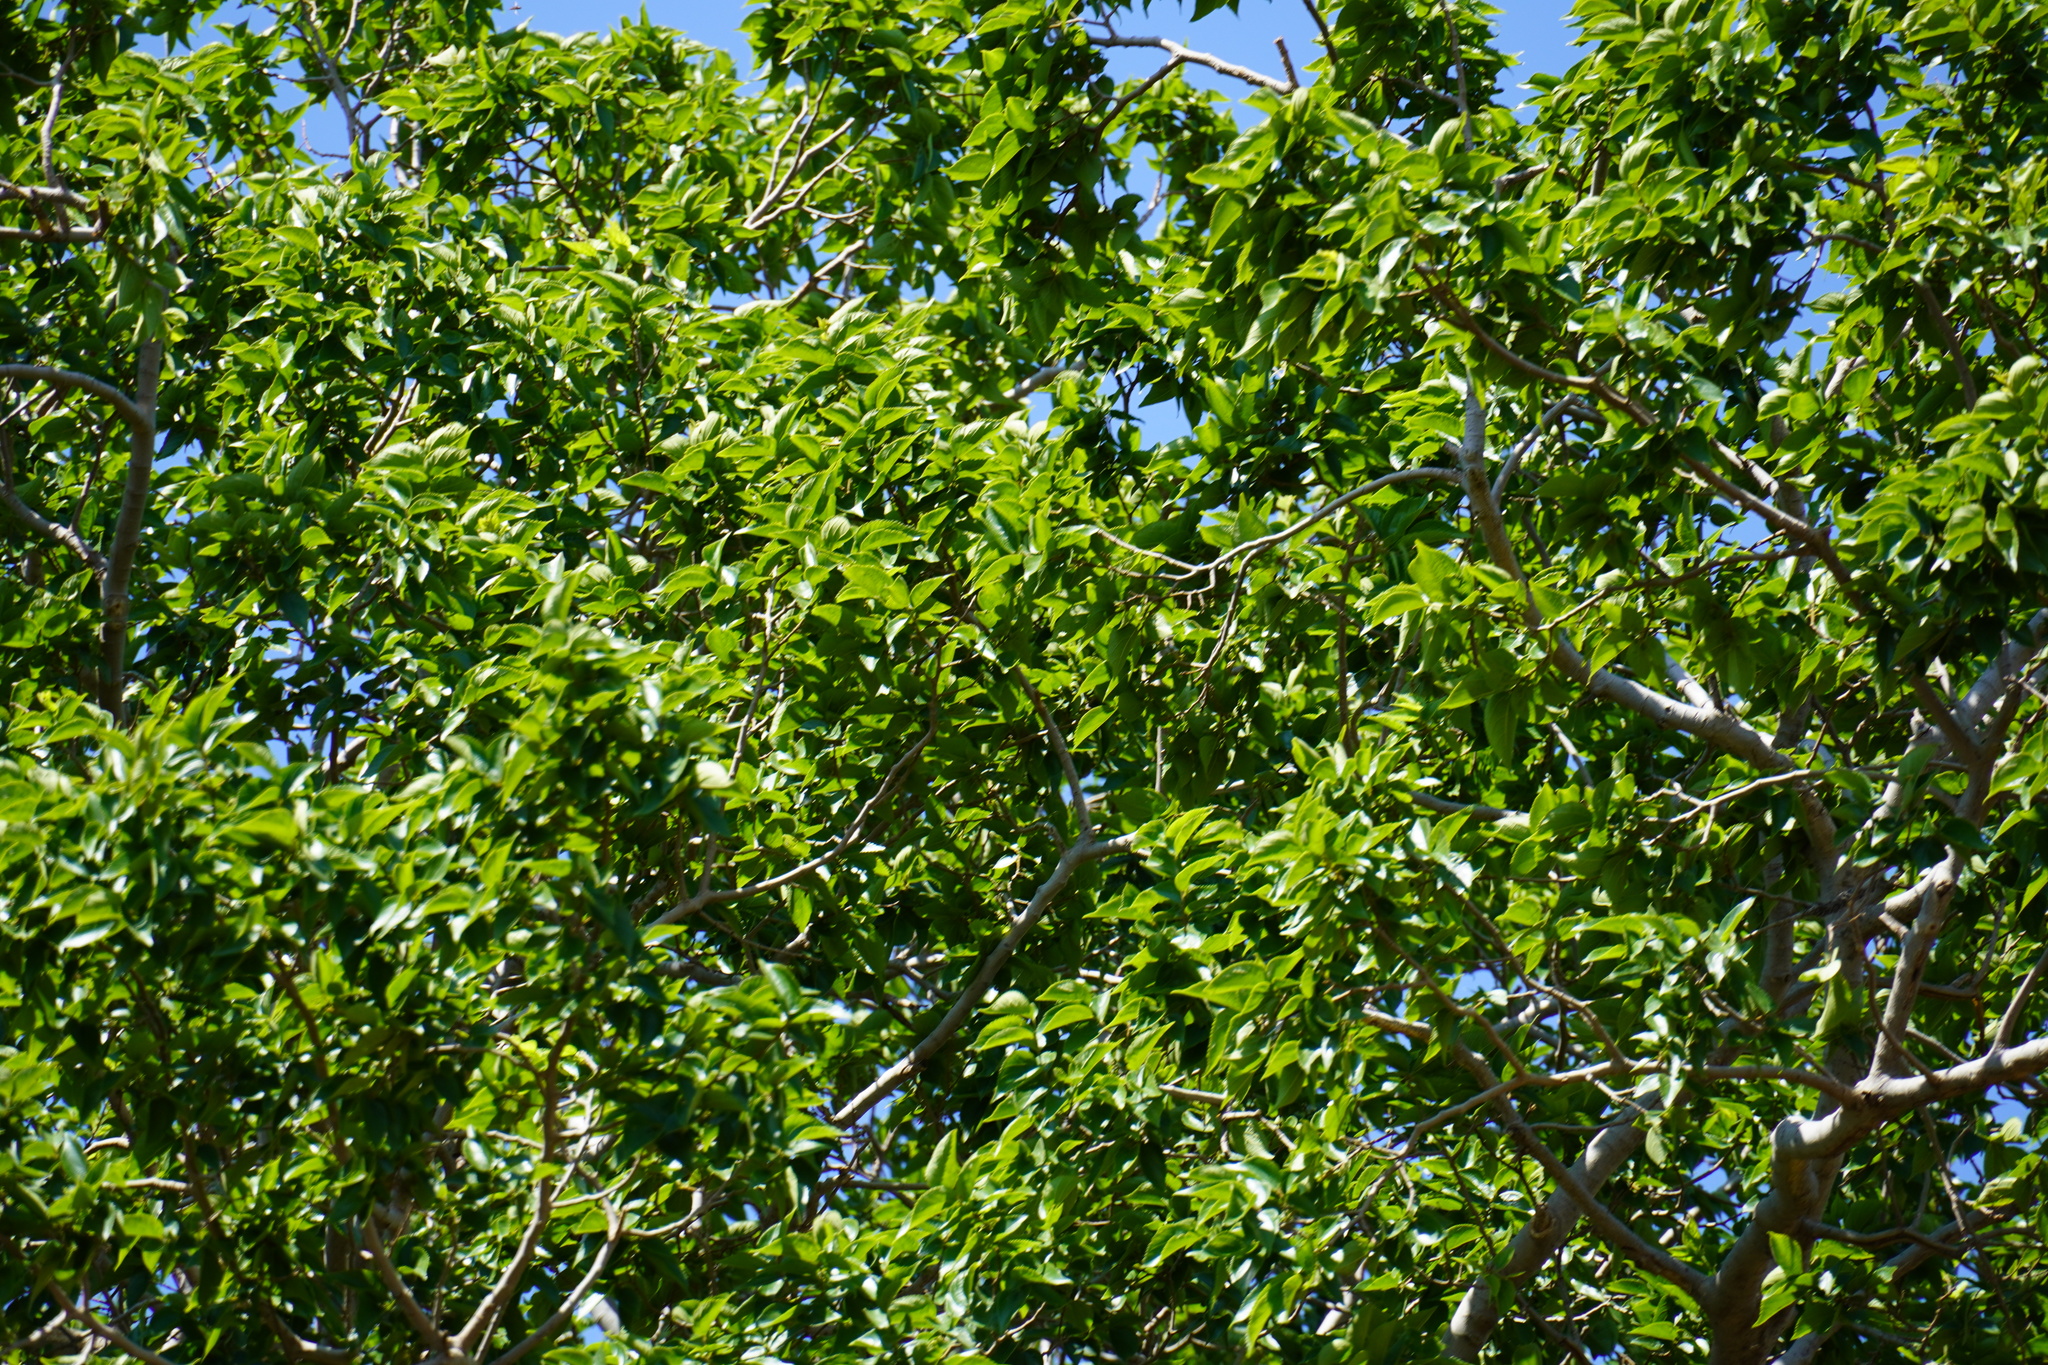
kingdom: Plantae
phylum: Tracheophyta
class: Magnoliopsida
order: Rosales
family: Cannabaceae
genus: Celtis
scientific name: Celtis africana
